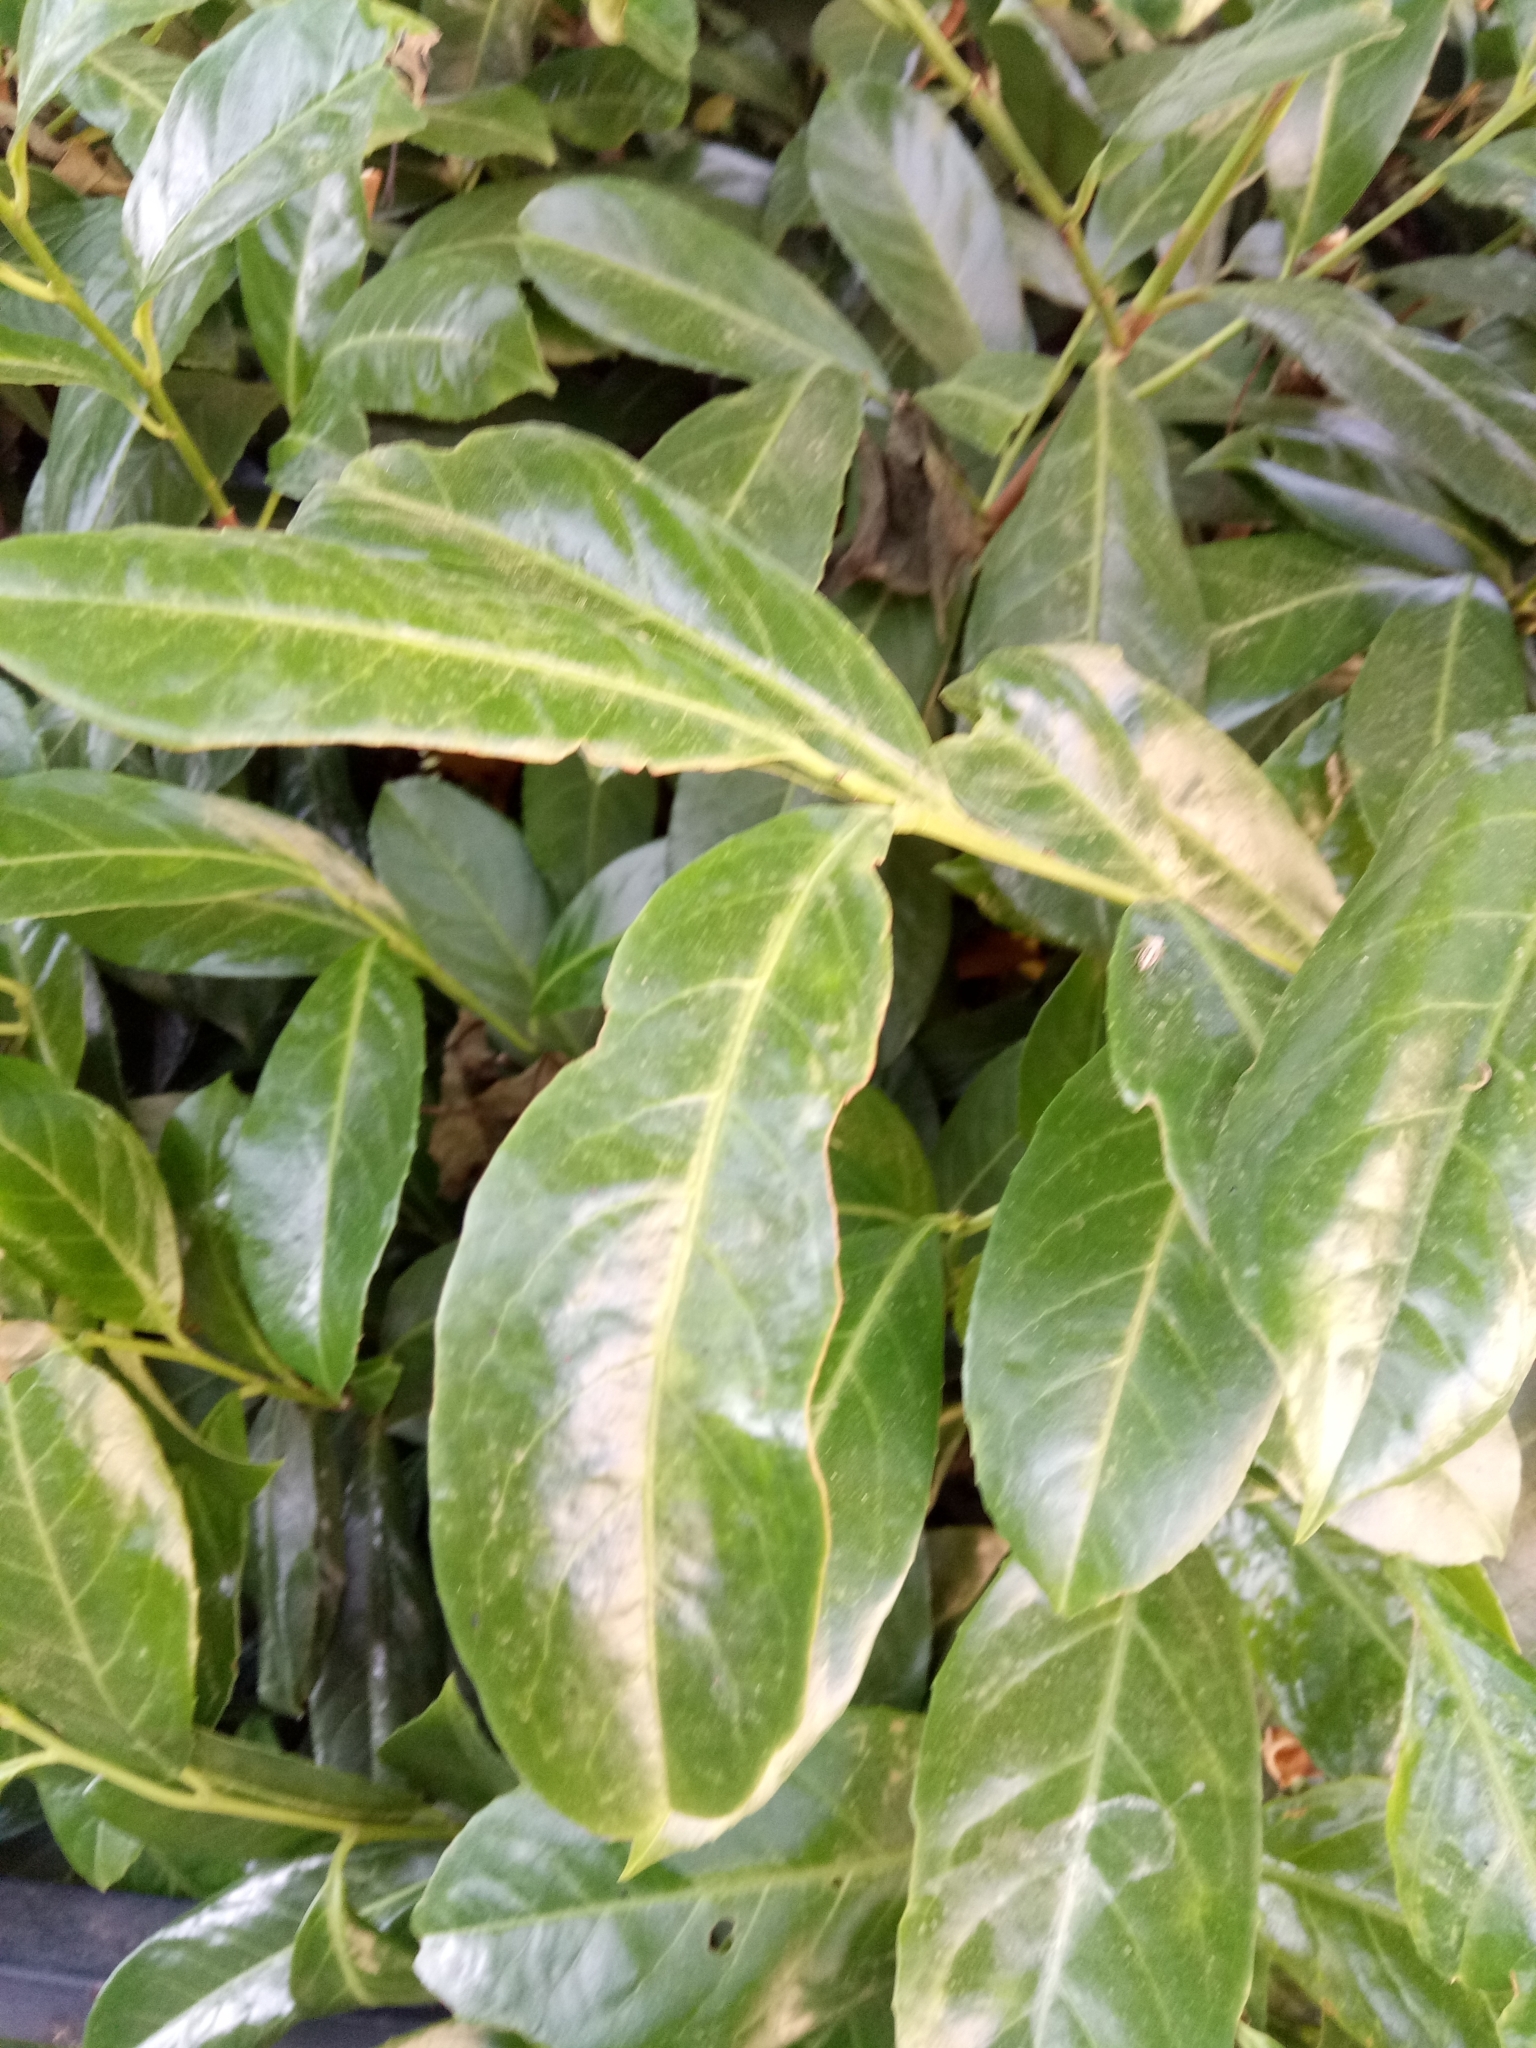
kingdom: Plantae
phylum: Tracheophyta
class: Magnoliopsida
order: Rosales
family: Rosaceae
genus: Prunus
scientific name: Prunus laurocerasus
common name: Cherry laurel
